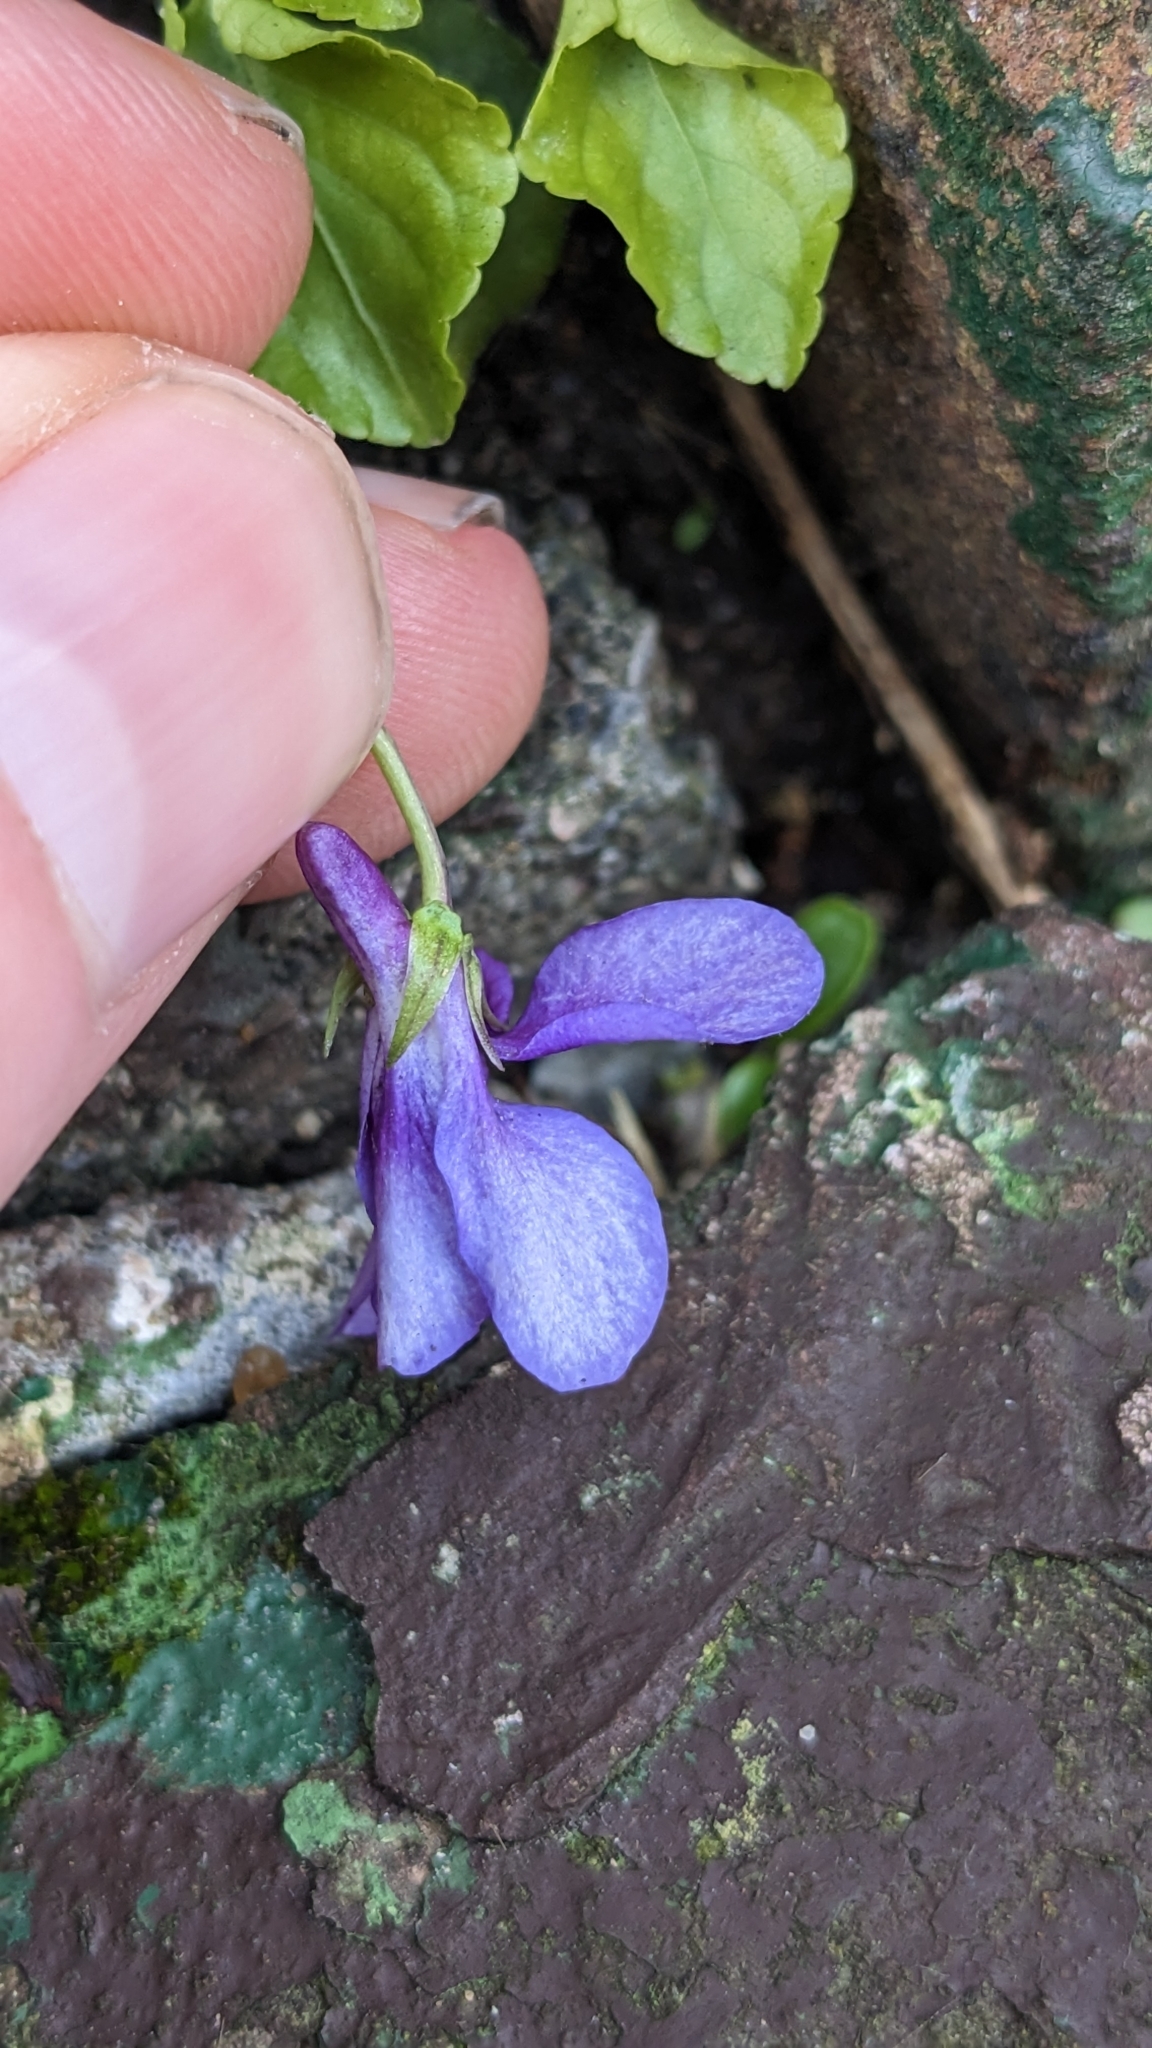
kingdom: Plantae
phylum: Tracheophyta
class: Magnoliopsida
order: Malpighiales
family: Violaceae
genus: Viola
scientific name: Viola reichenbachiana
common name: Early dog-violet
